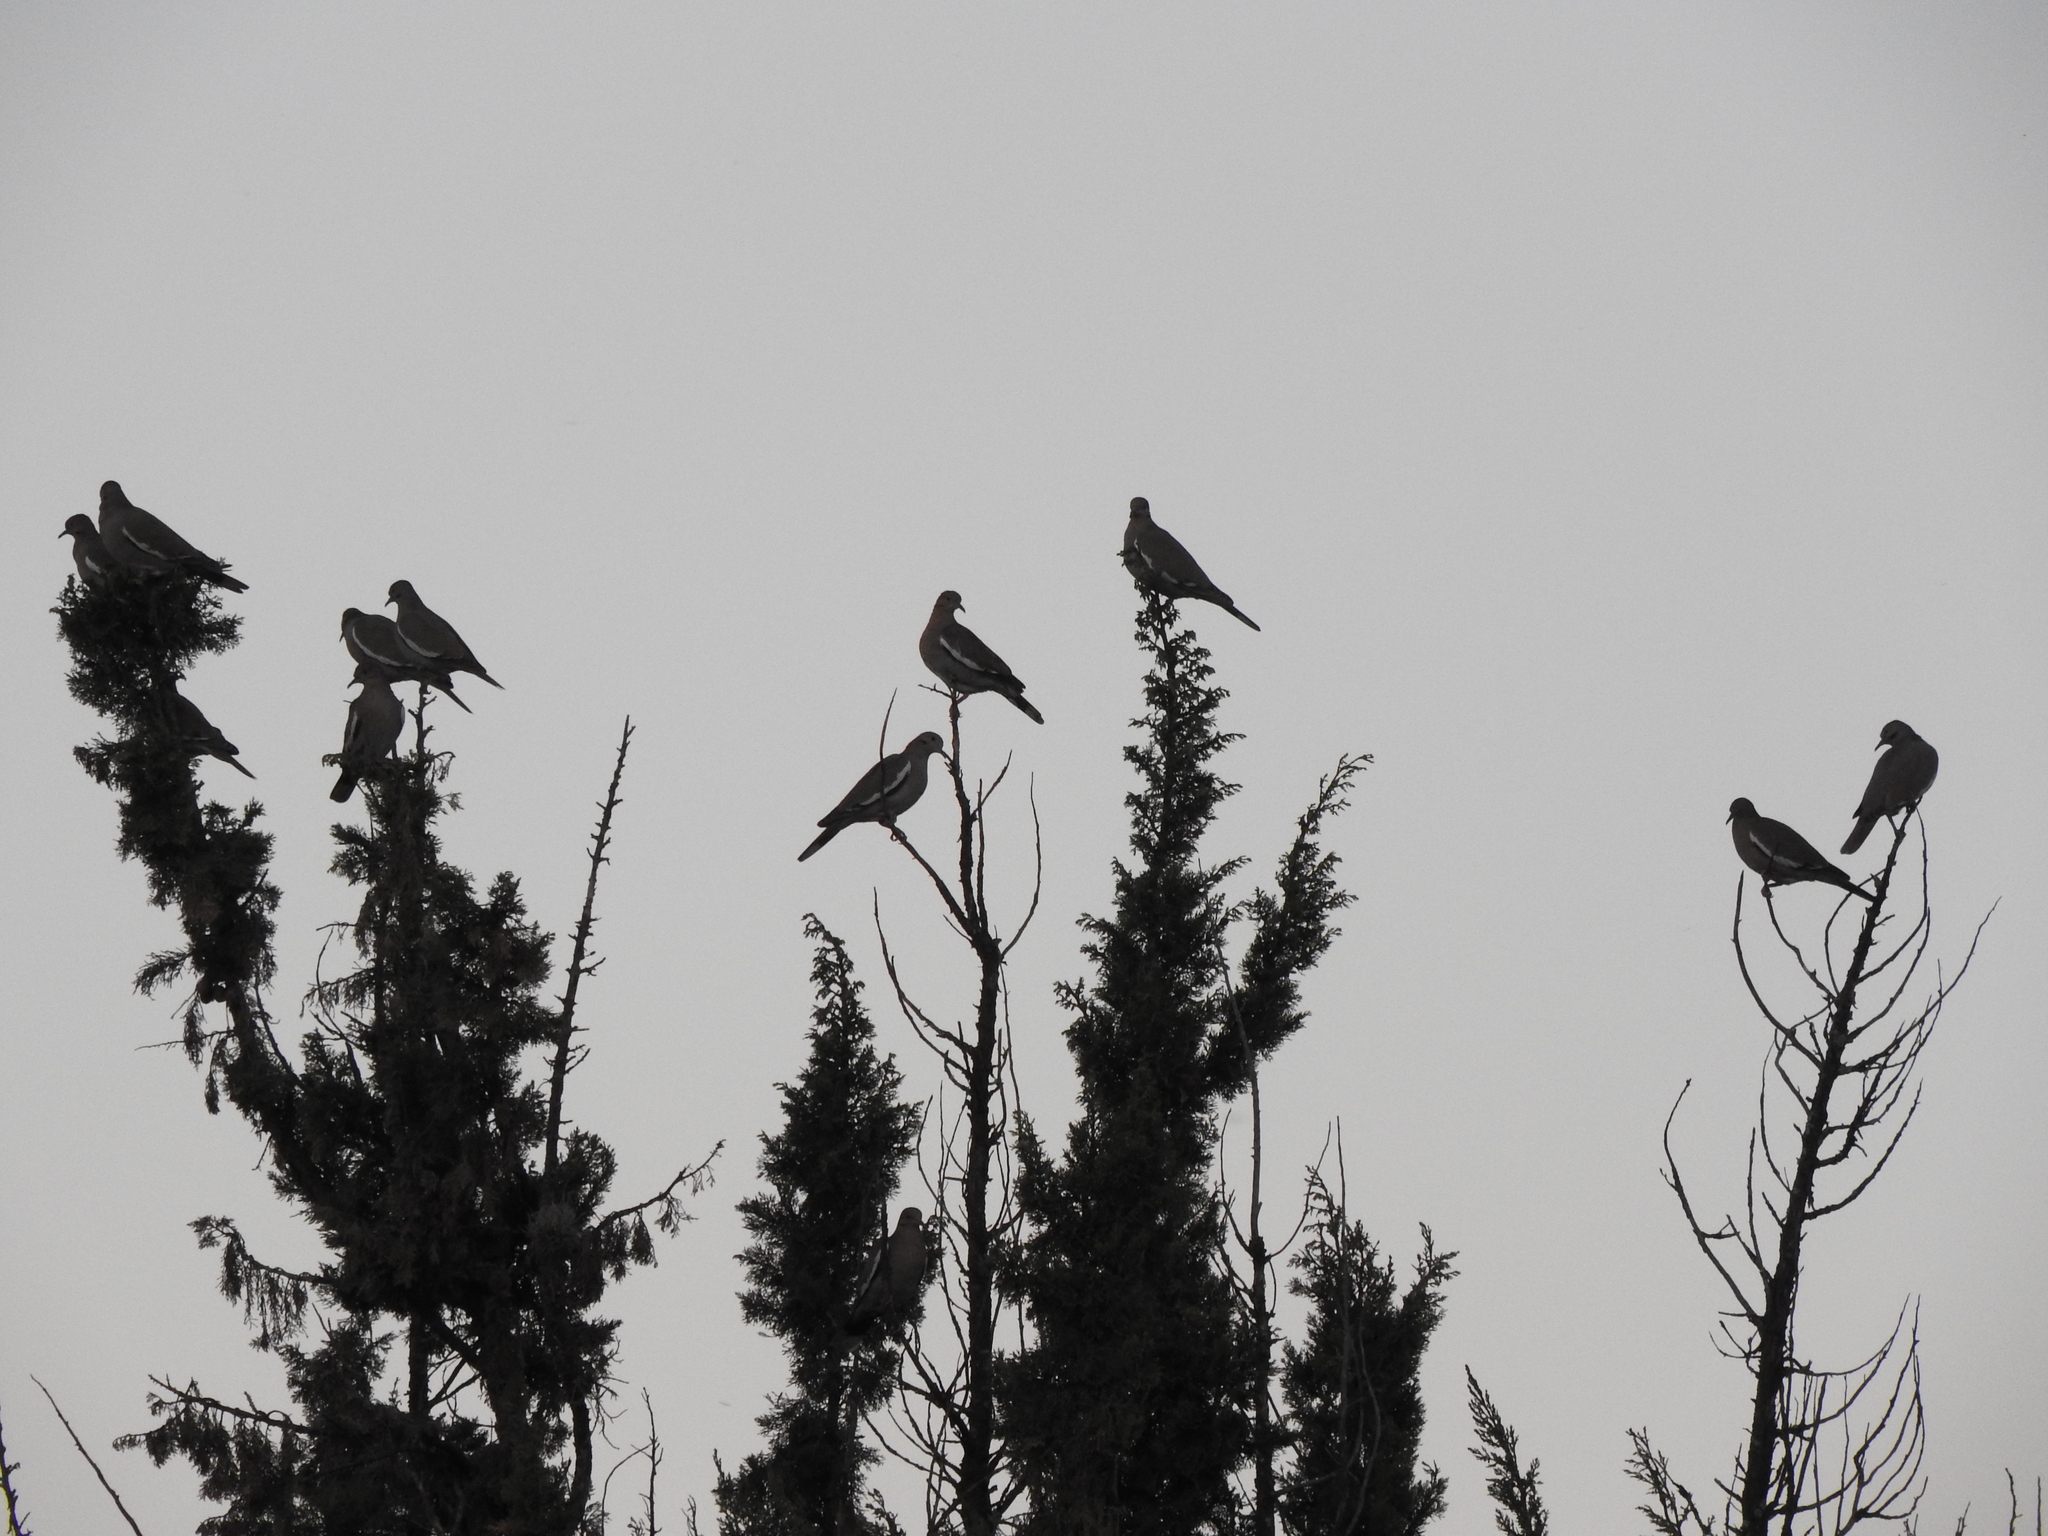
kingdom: Animalia
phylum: Chordata
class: Aves
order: Columbiformes
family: Columbidae
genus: Zenaida
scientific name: Zenaida asiatica
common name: White-winged dove
